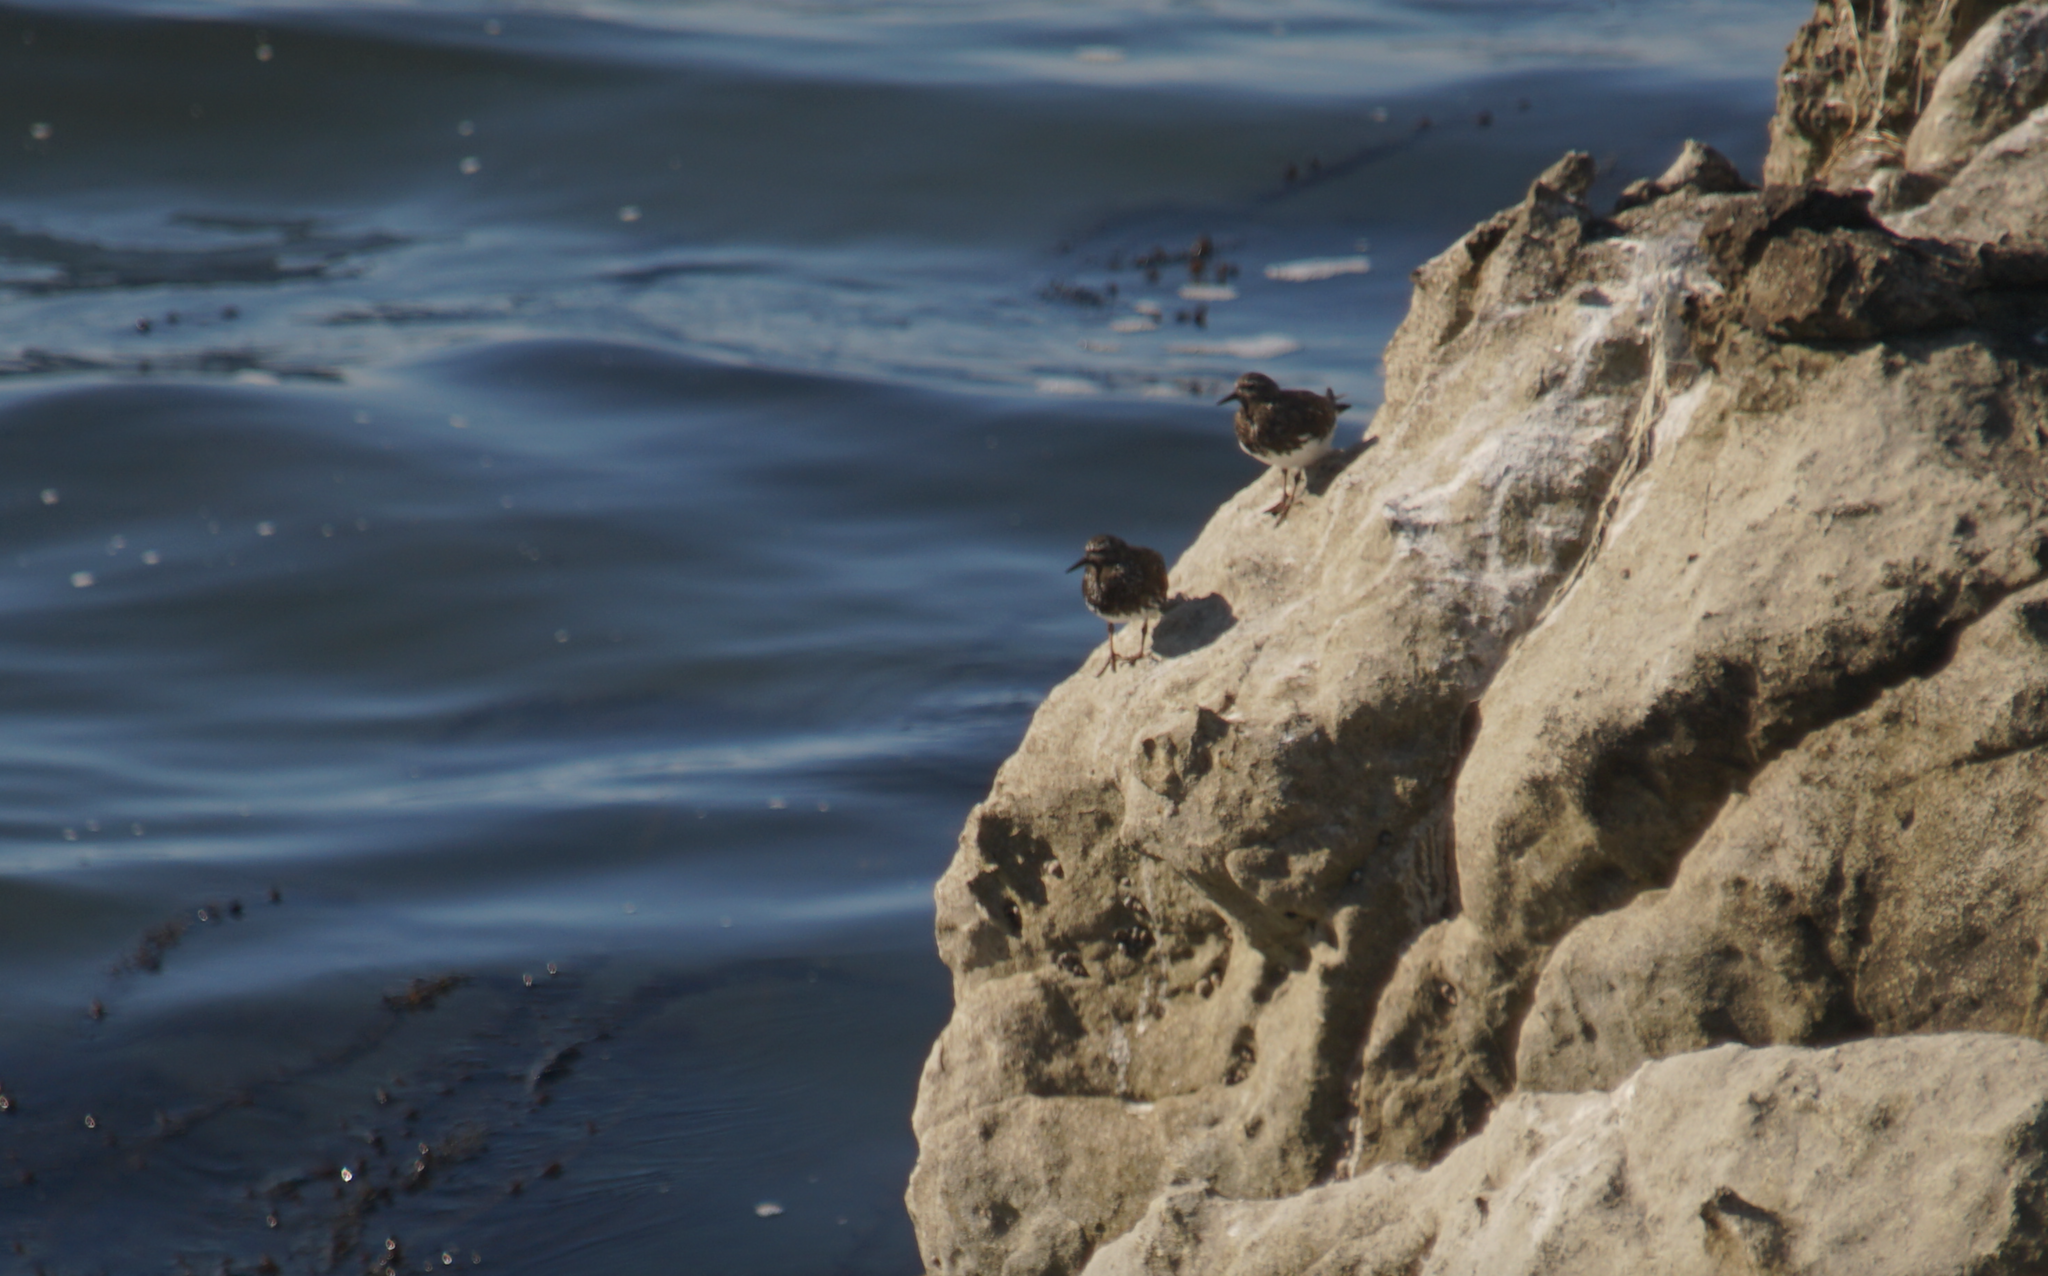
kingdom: Animalia
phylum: Chordata
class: Aves
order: Charadriiformes
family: Scolopacidae
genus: Arenaria
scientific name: Arenaria melanocephala
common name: Black turnstone
